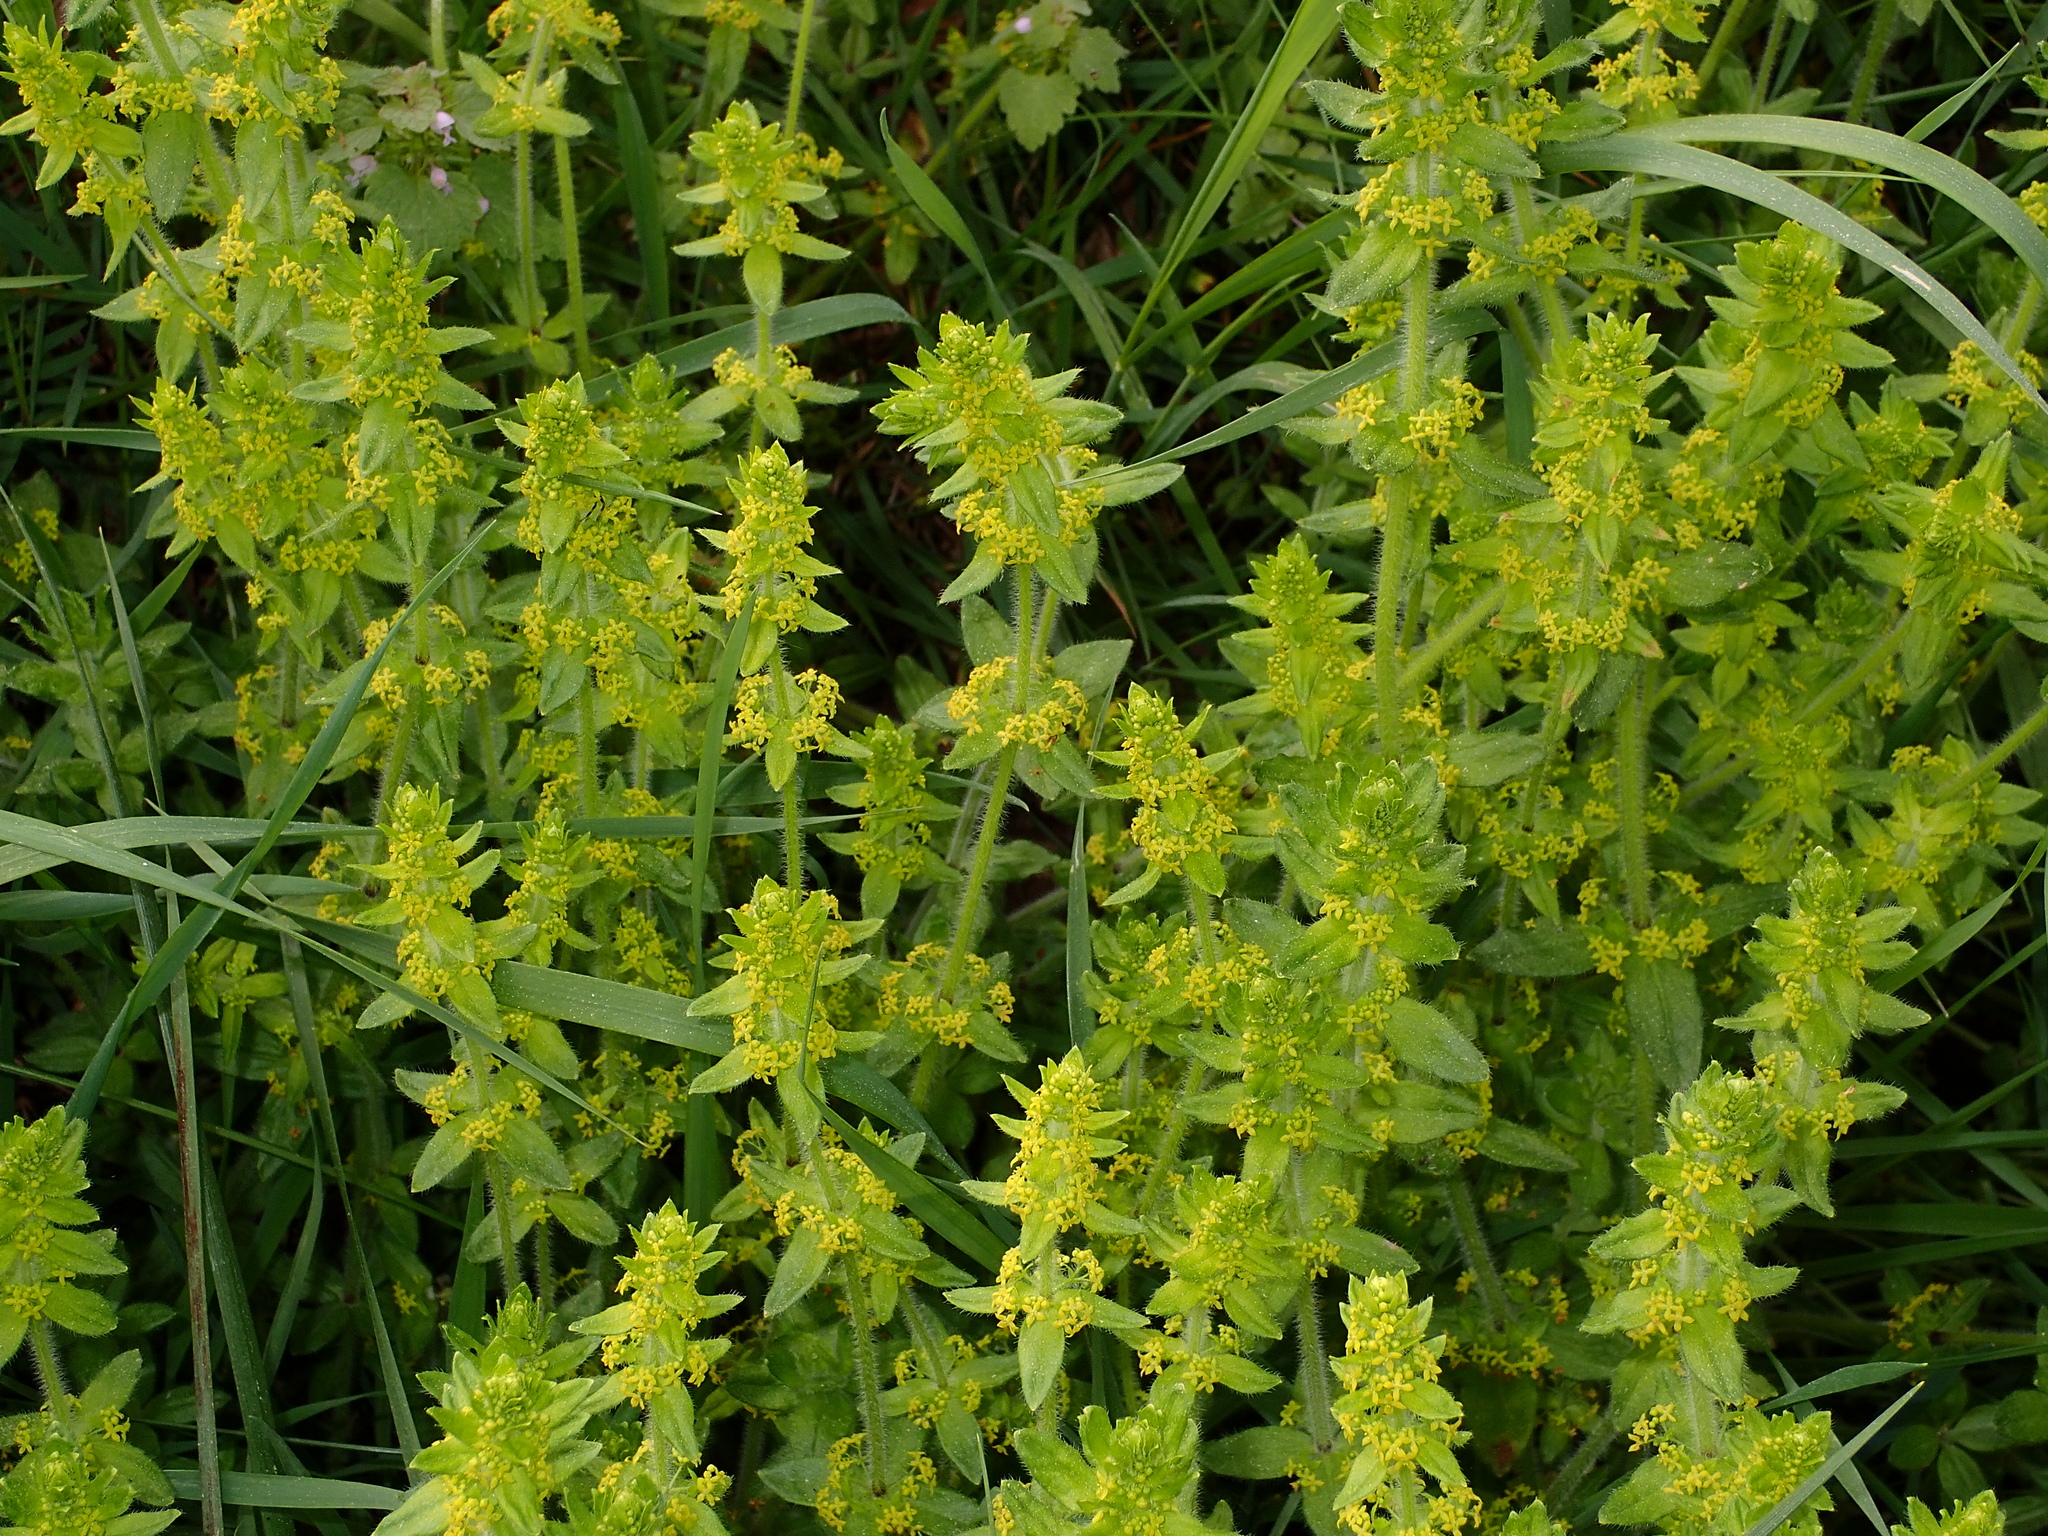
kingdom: Plantae
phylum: Tracheophyta
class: Magnoliopsida
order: Gentianales
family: Rubiaceae
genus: Cruciata
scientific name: Cruciata laevipes
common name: Crosswort
